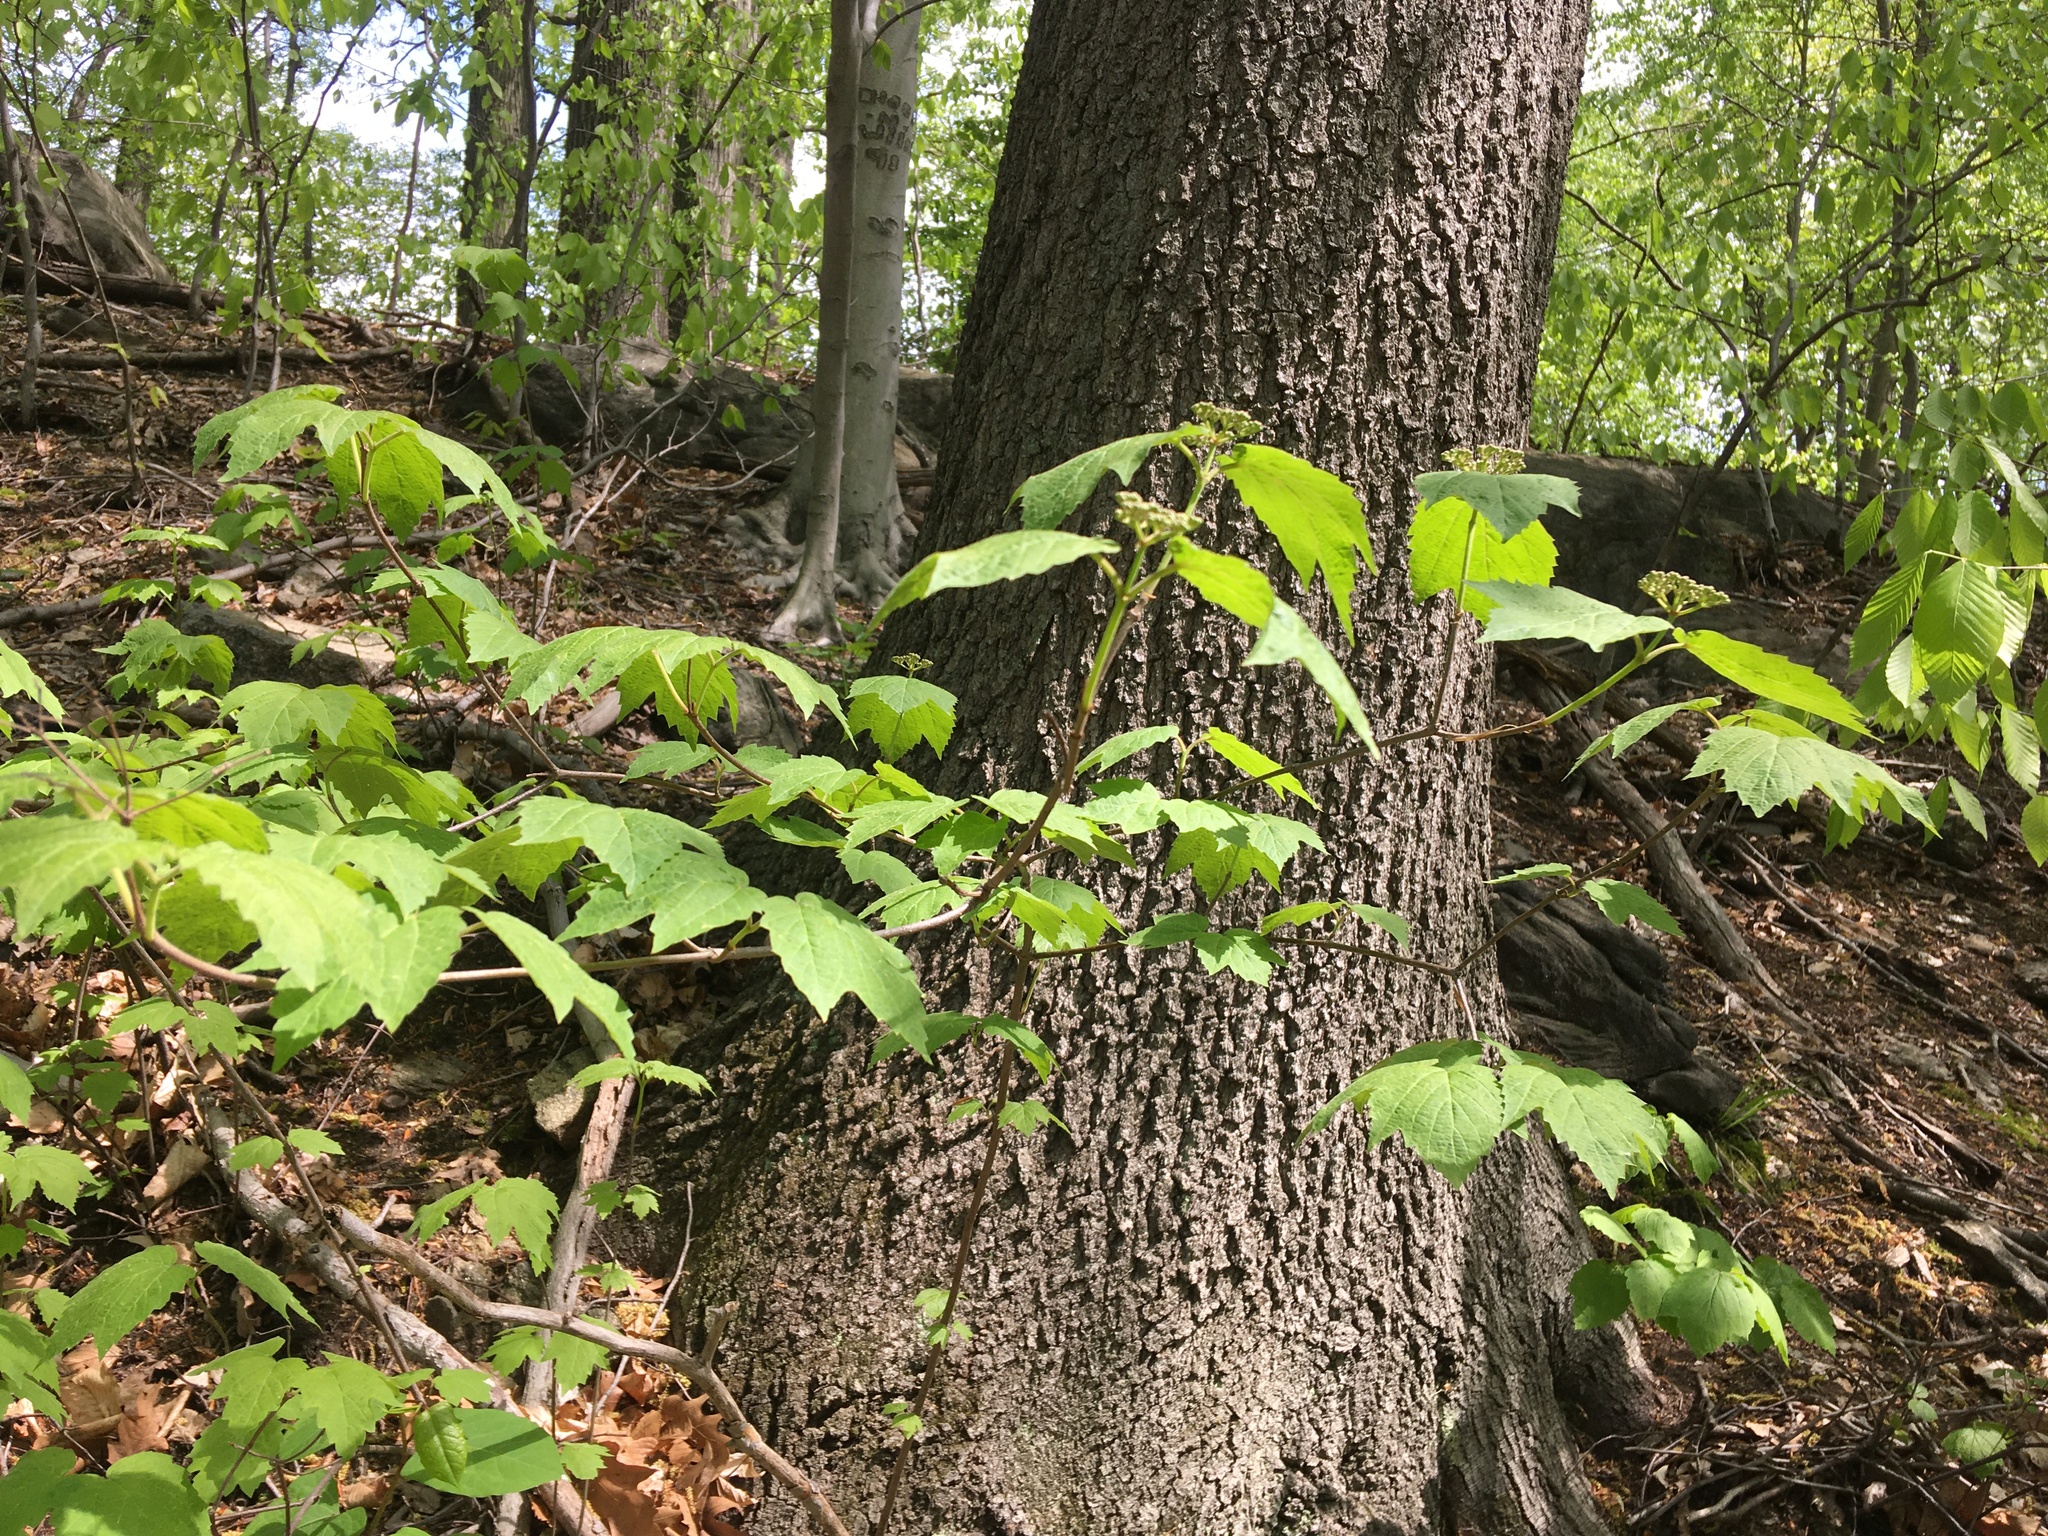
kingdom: Plantae
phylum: Tracheophyta
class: Magnoliopsida
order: Dipsacales
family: Viburnaceae
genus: Viburnum
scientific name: Viburnum acerifolium
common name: Dockmackie
